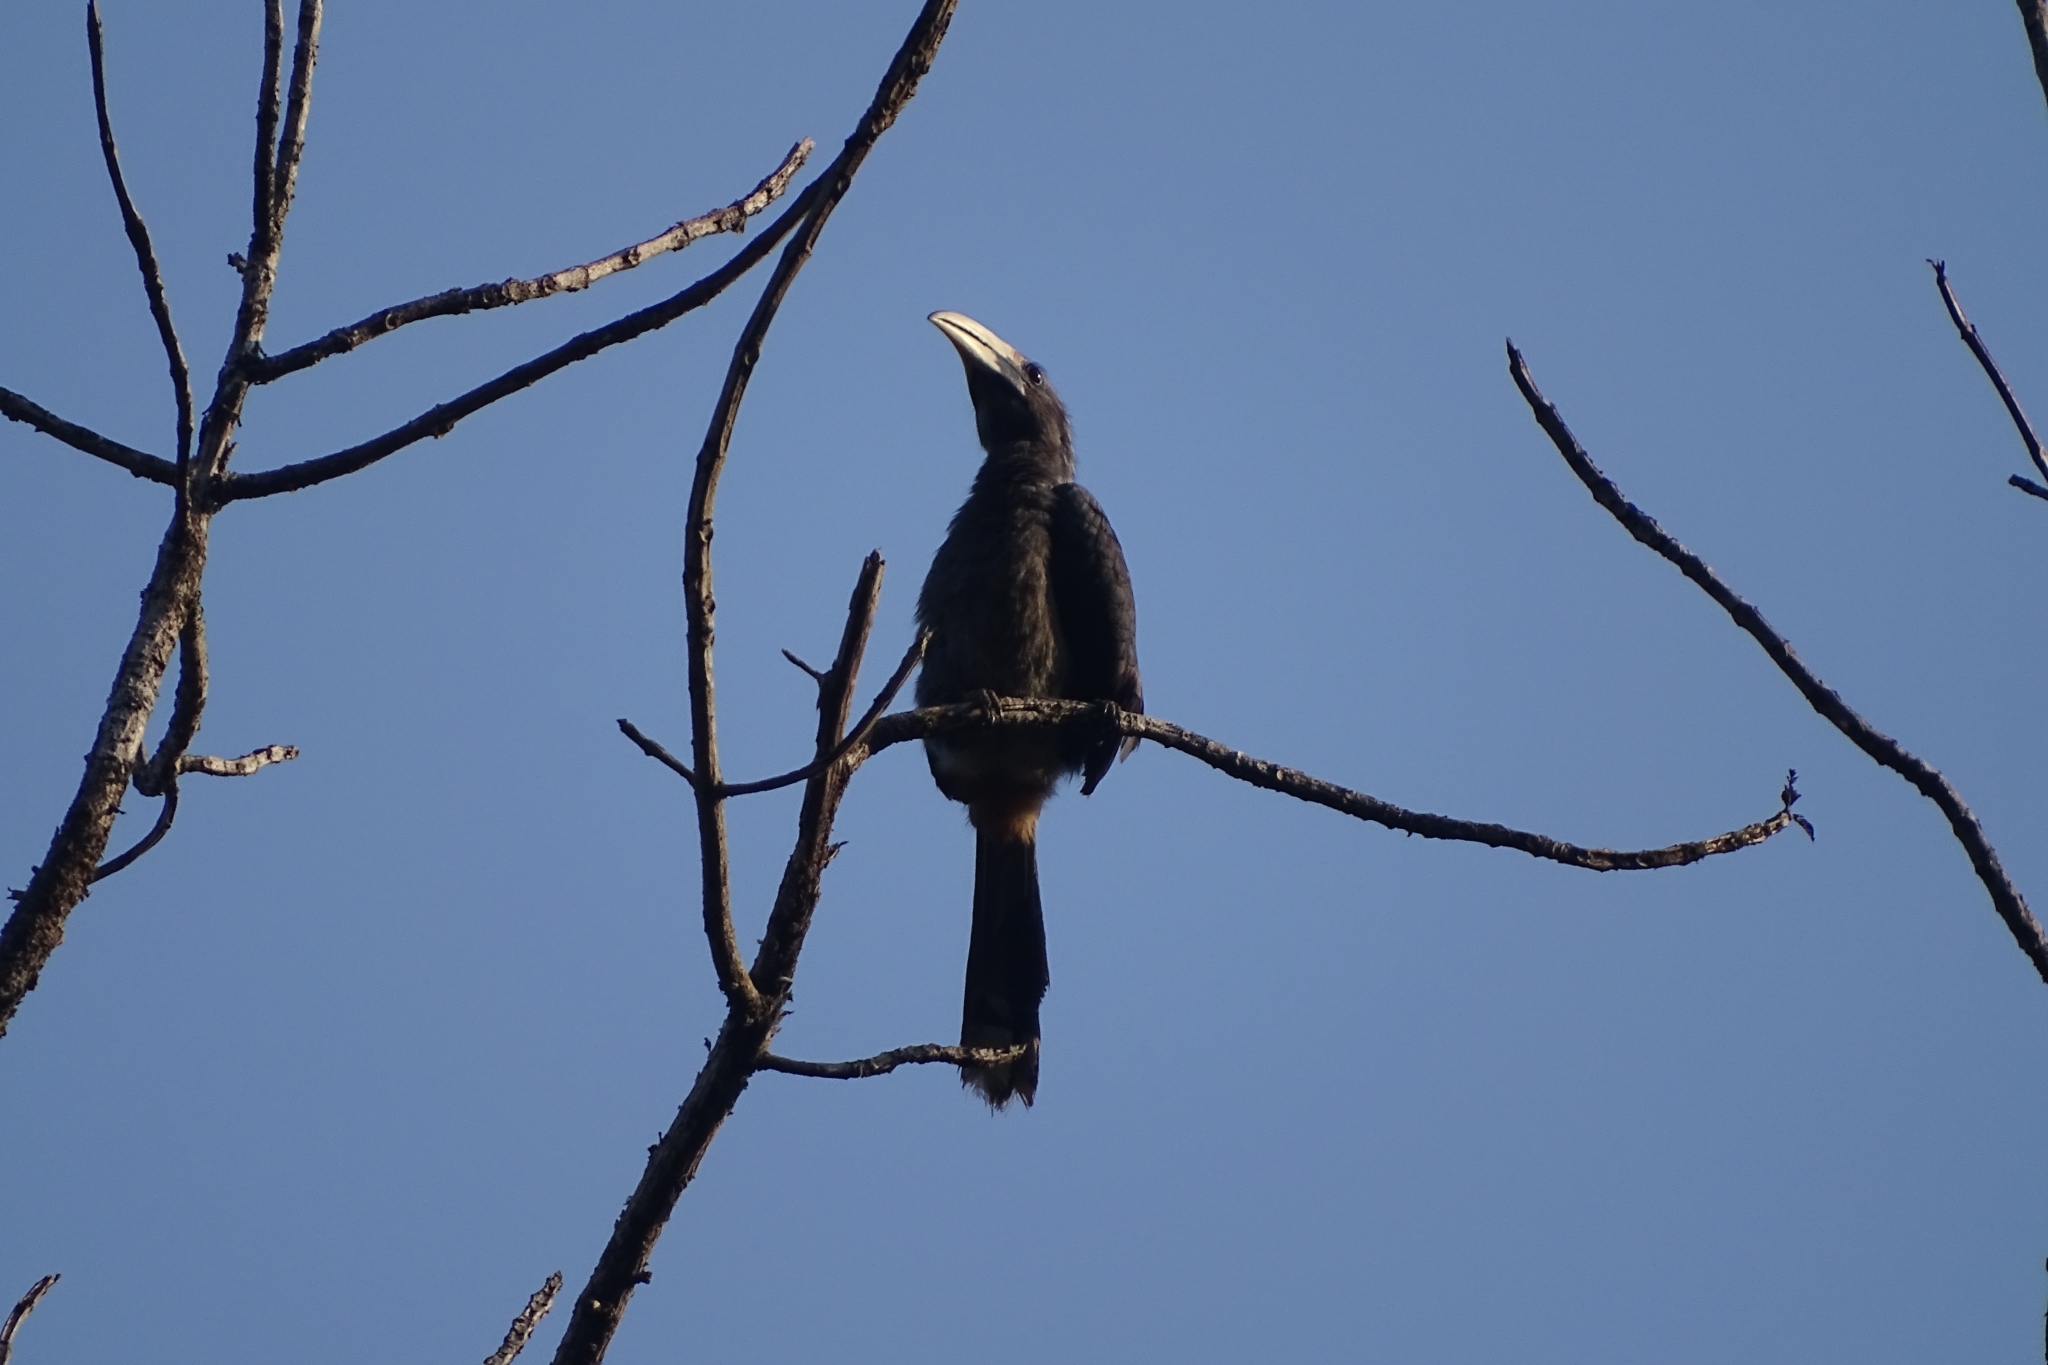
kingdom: Animalia
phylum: Chordata
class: Aves
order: Bucerotiformes
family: Bucerotidae
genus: Ocyceros
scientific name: Ocyceros griseus
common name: Malabar grey hornbill
